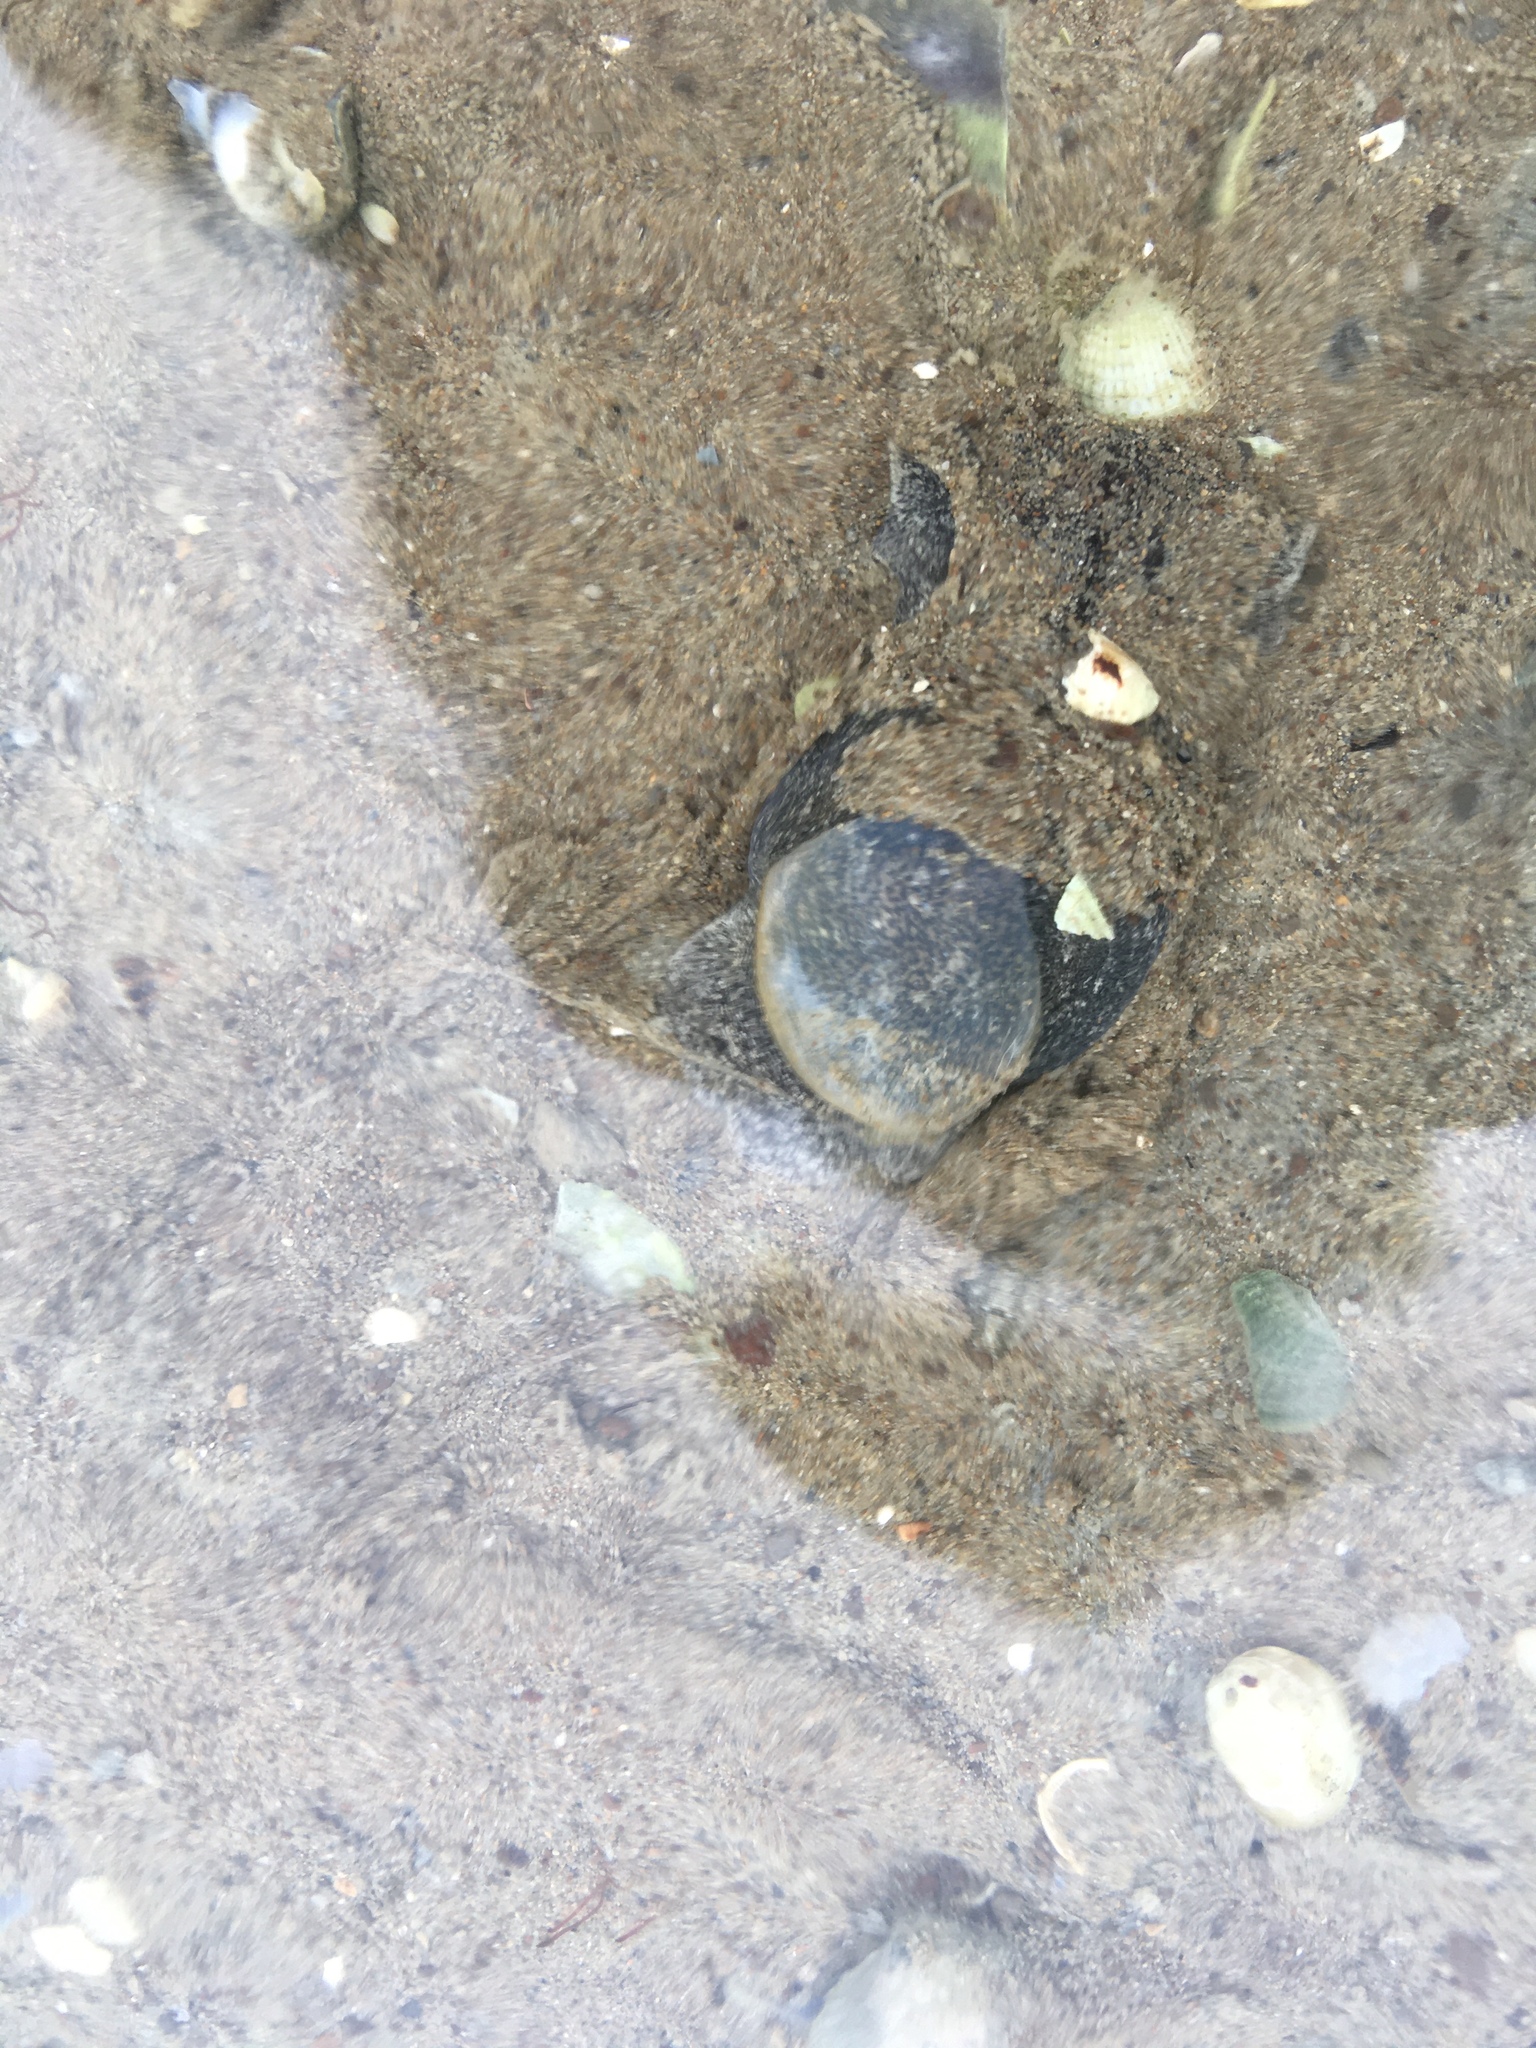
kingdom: Animalia
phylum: Mollusca
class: Gastropoda
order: Cephalaspidea
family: Haminoeidae
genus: Papawera
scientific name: Papawera zelandiae
